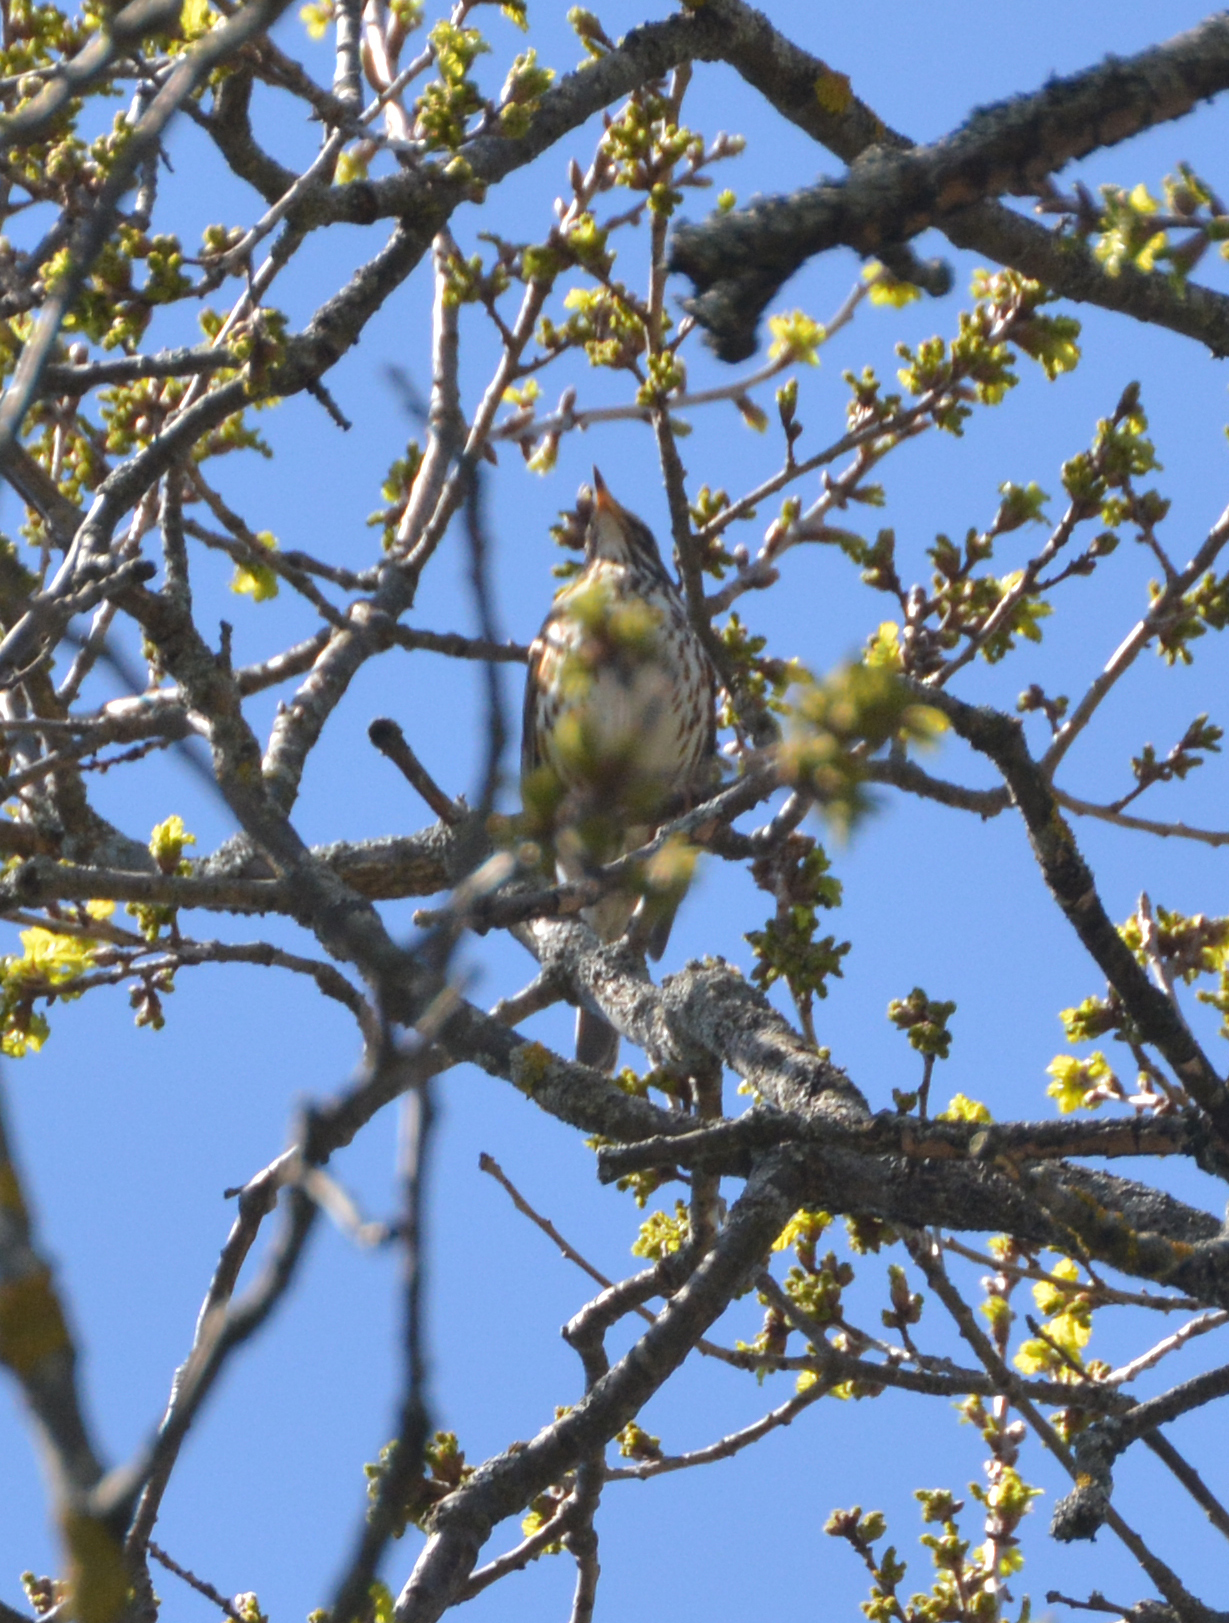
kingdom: Animalia
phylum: Chordata
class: Aves
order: Passeriformes
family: Turdidae
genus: Turdus
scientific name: Turdus iliacus
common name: Redwing
